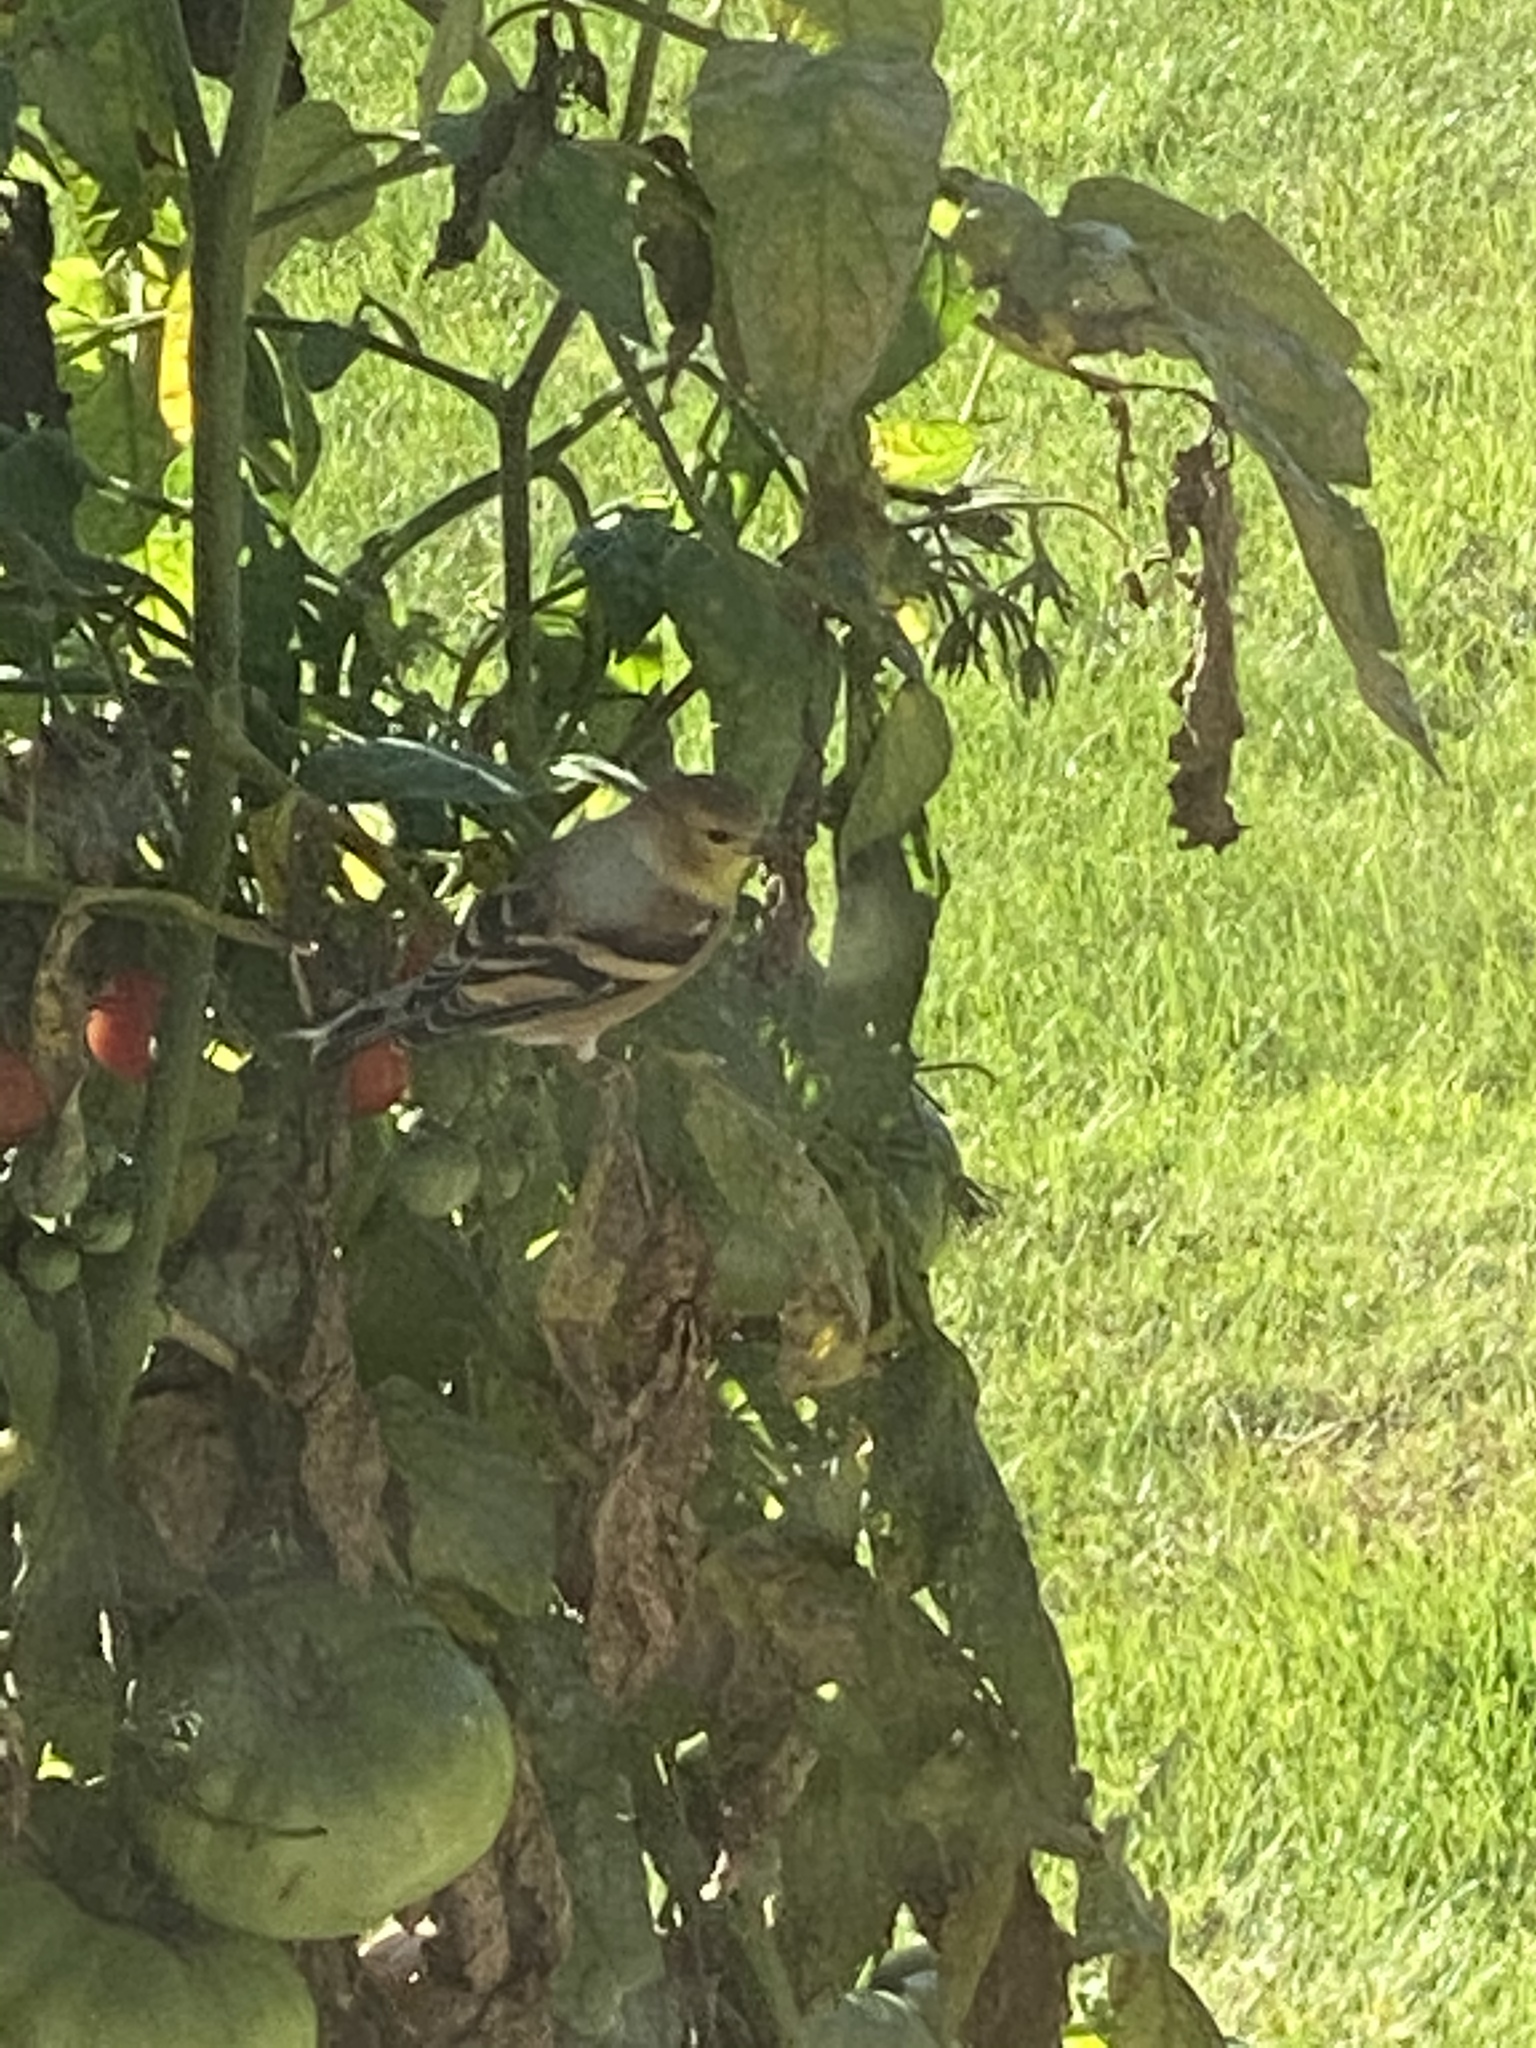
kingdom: Animalia
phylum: Chordata
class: Aves
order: Passeriformes
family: Fringillidae
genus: Spinus
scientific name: Spinus tristis
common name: American goldfinch
